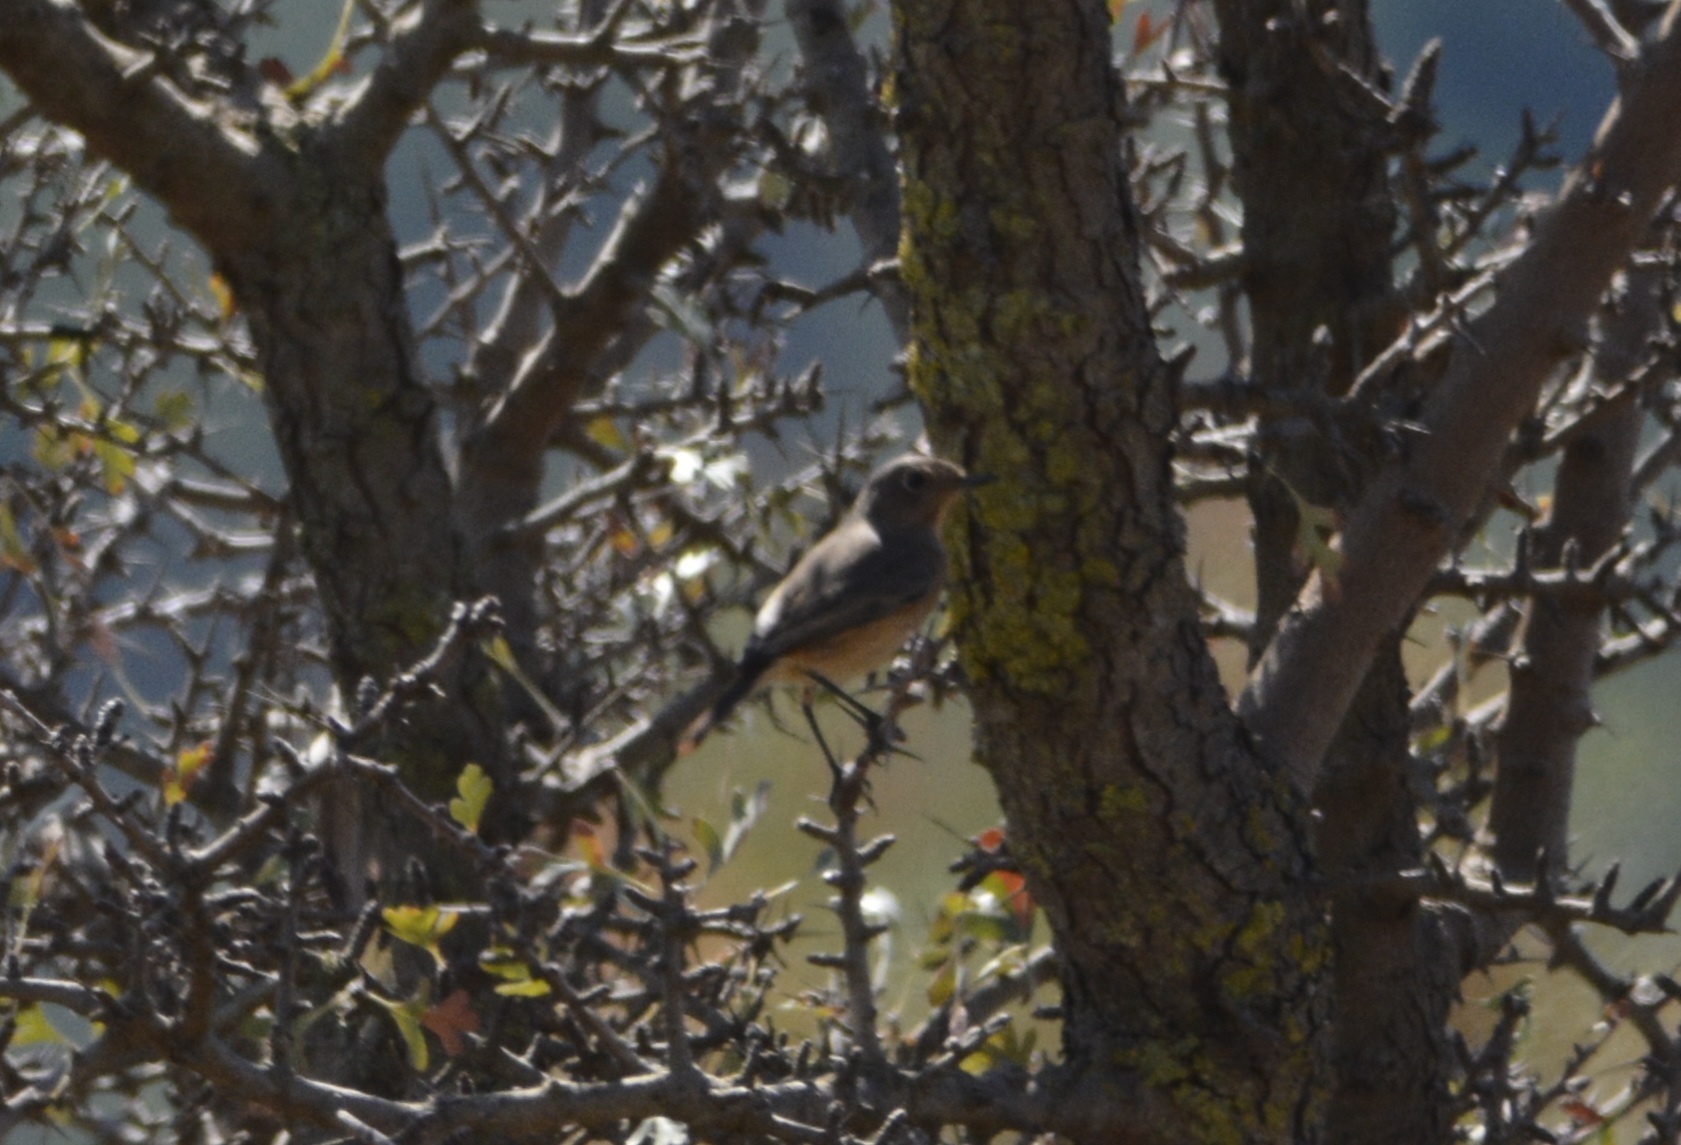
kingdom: Animalia
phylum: Chordata
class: Aves
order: Passeriformes
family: Muscicapidae
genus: Phoenicurus
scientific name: Phoenicurus phoenicurus
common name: Common redstart
